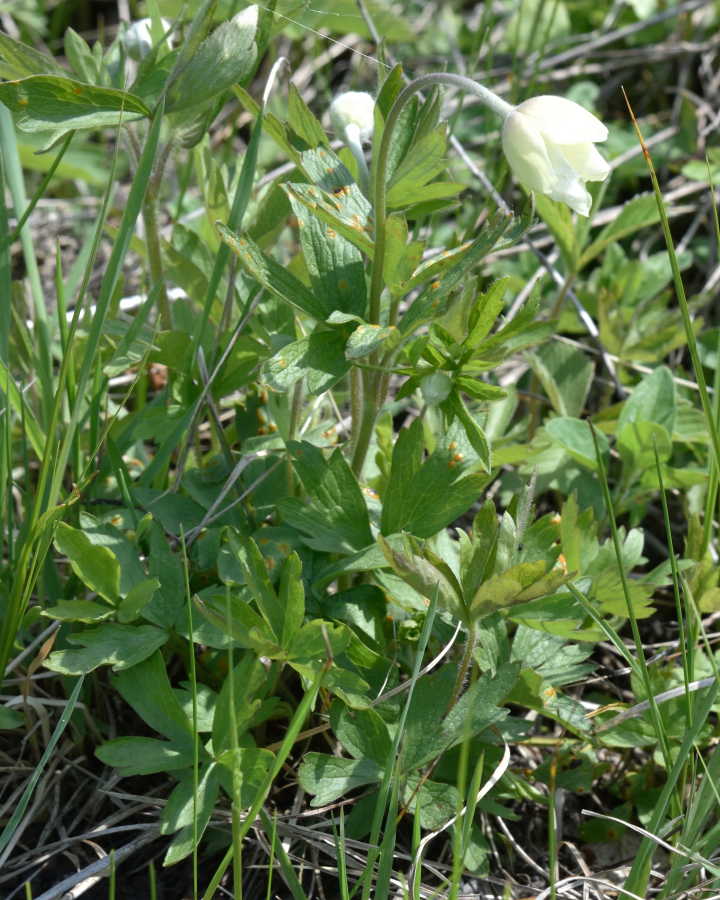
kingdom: Plantae
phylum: Tracheophyta
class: Magnoliopsida
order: Ranunculales
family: Ranunculaceae
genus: Anemone
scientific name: Anemone sylvestris
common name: Snowdrop anemone
